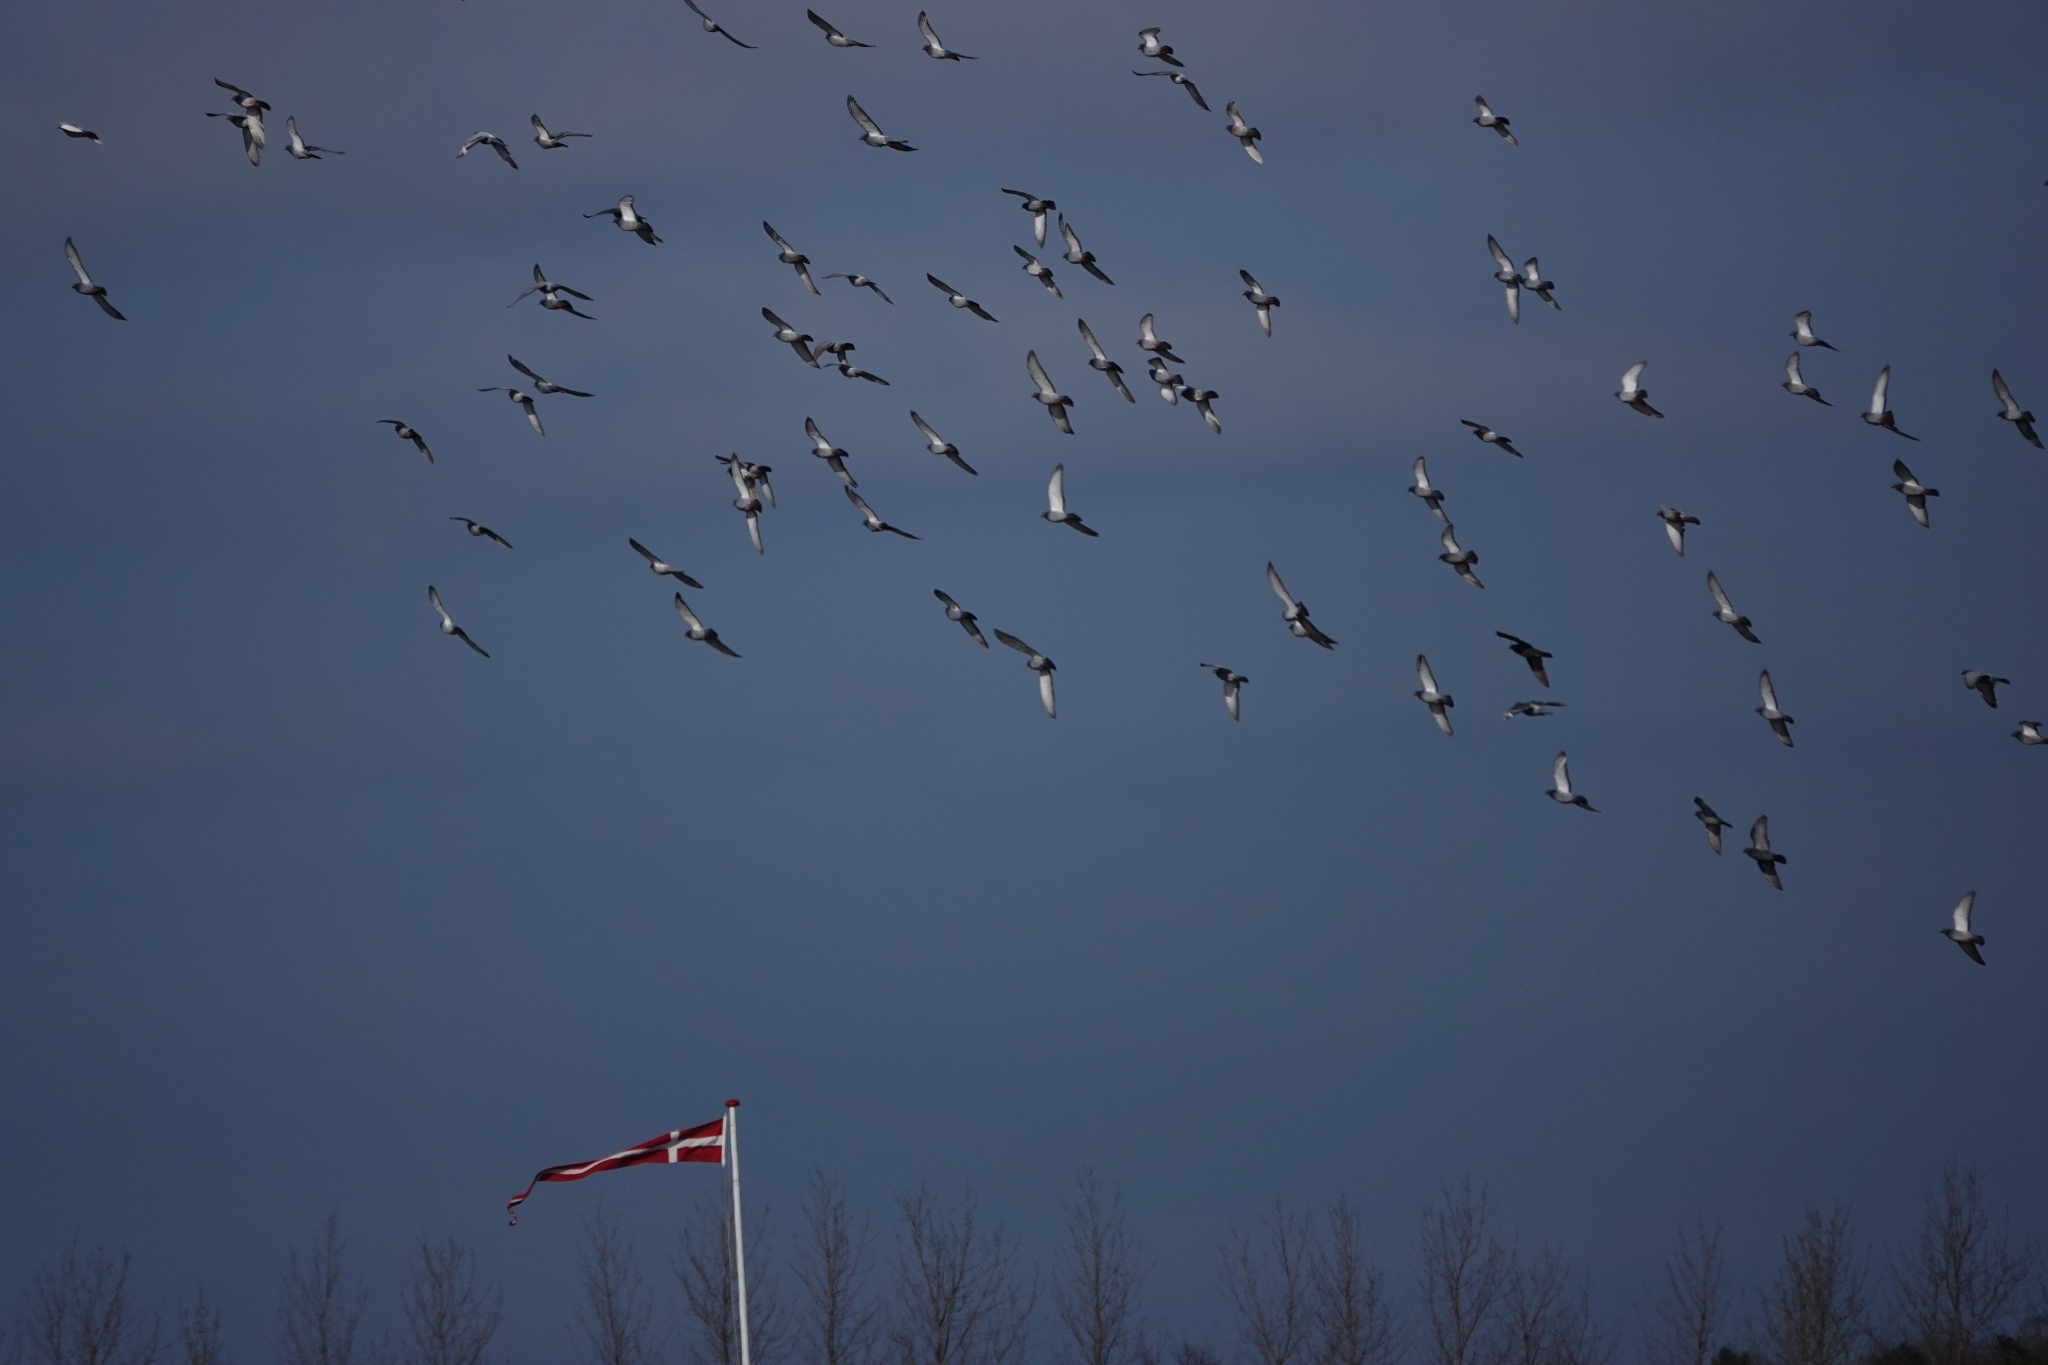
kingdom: Animalia
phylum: Chordata
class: Aves
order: Columbiformes
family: Columbidae
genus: Columba
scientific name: Columba livia
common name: Rock pigeon
